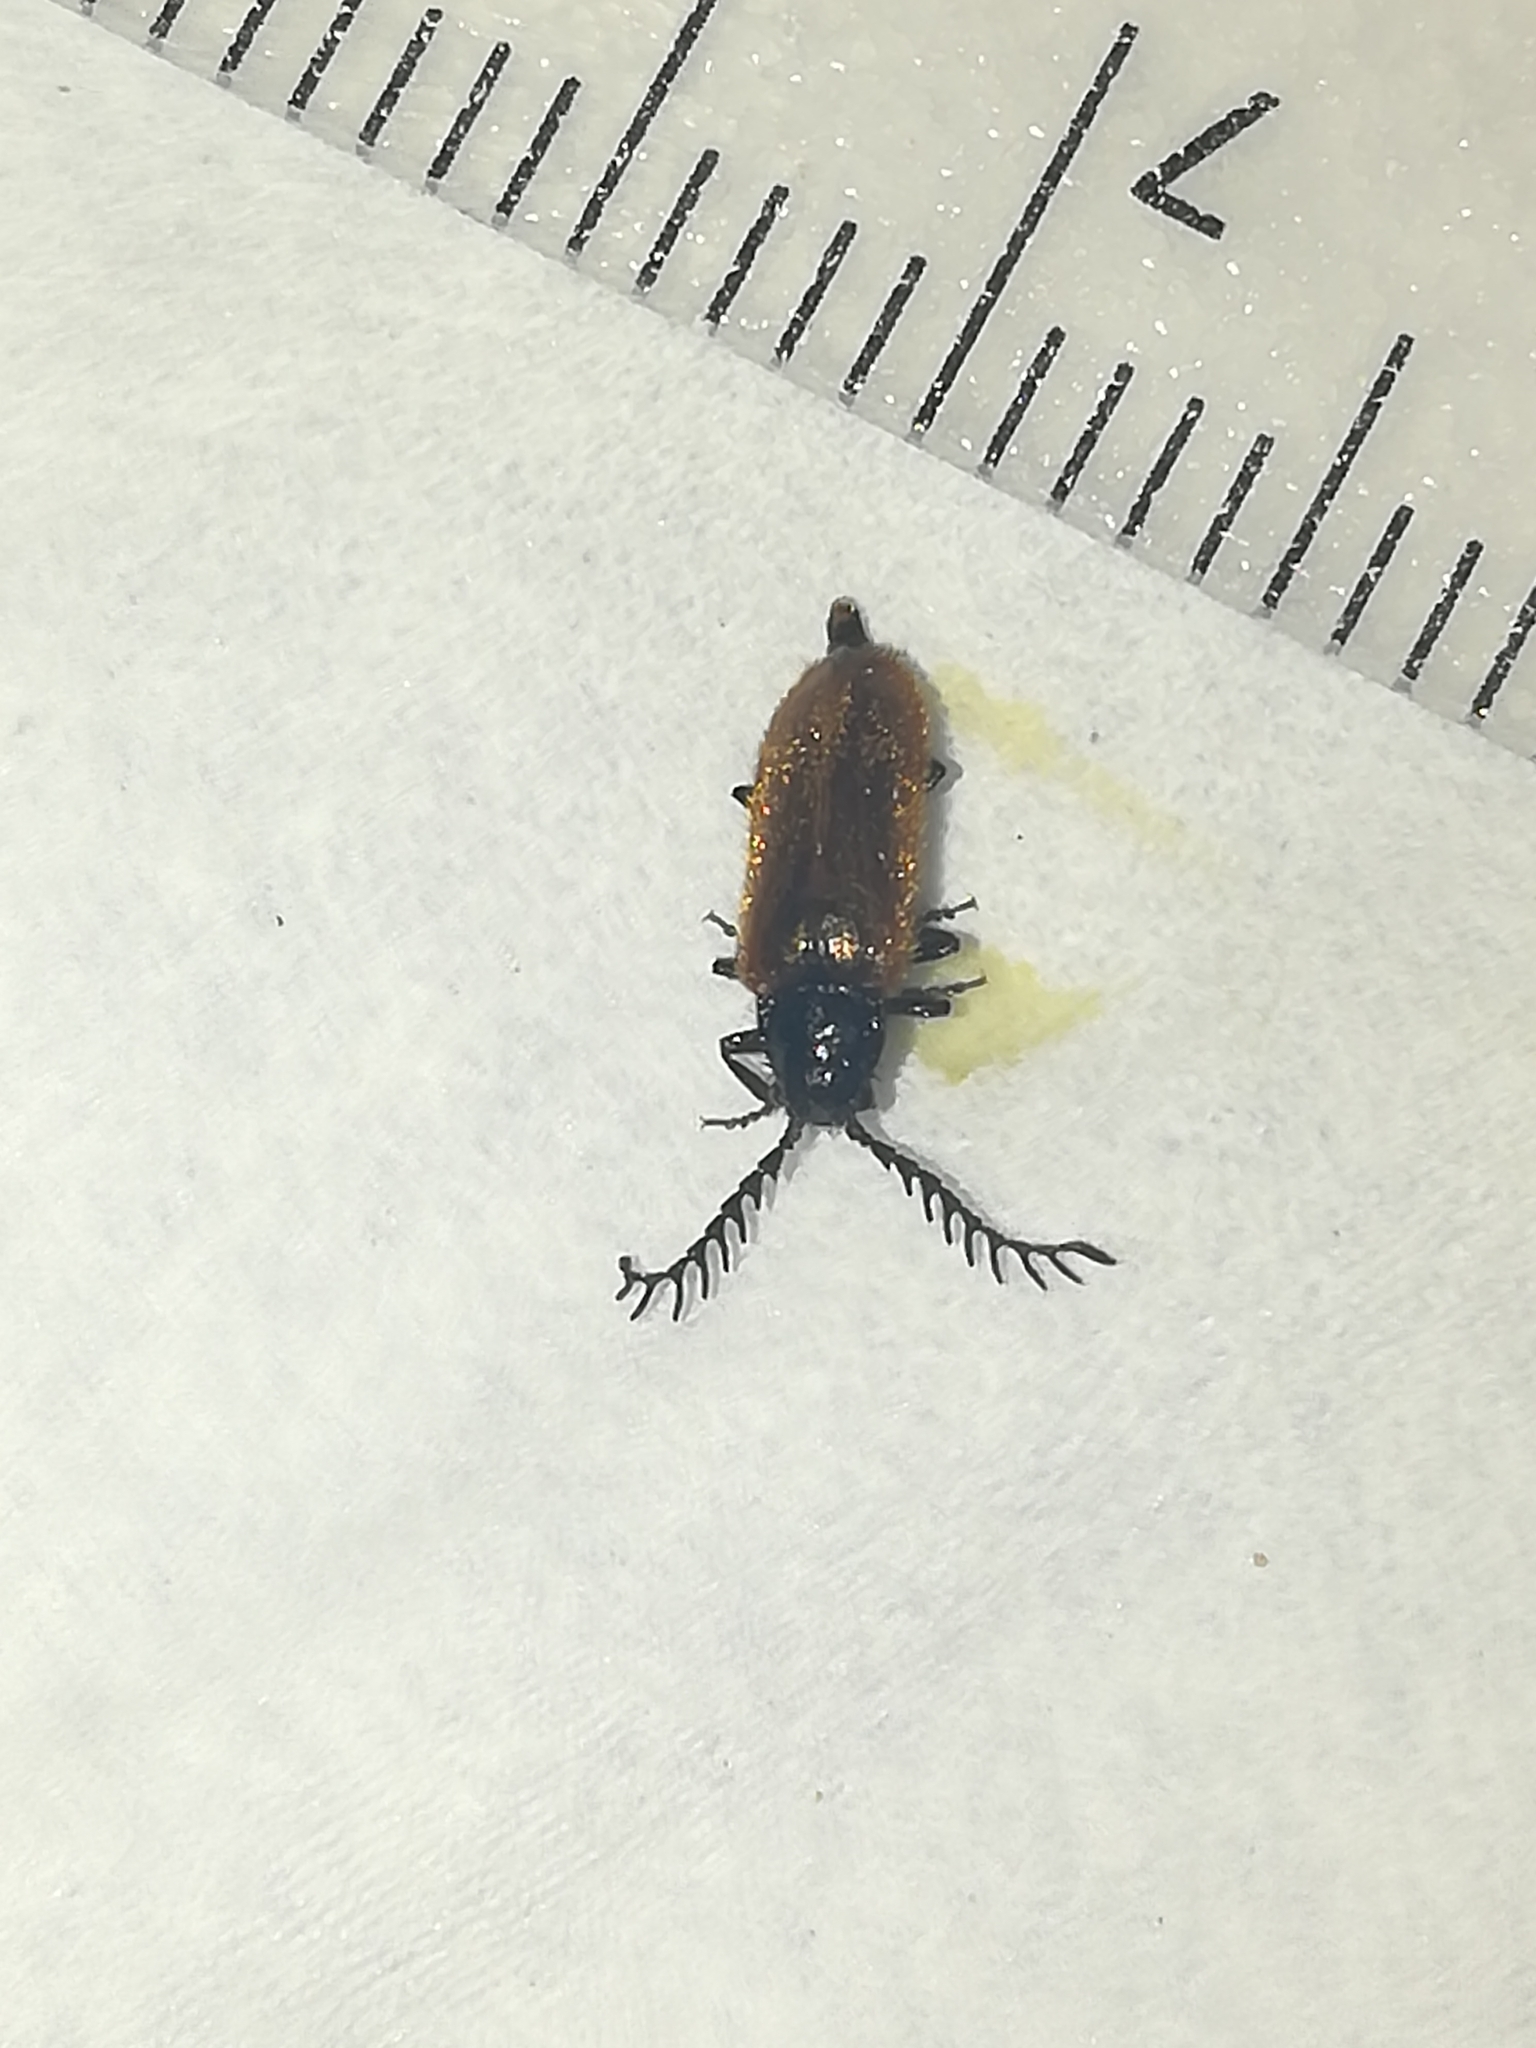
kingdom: Animalia
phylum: Arthropoda
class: Insecta
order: Coleoptera
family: Drilidae
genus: Drilus
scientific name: Drilus flavescens
